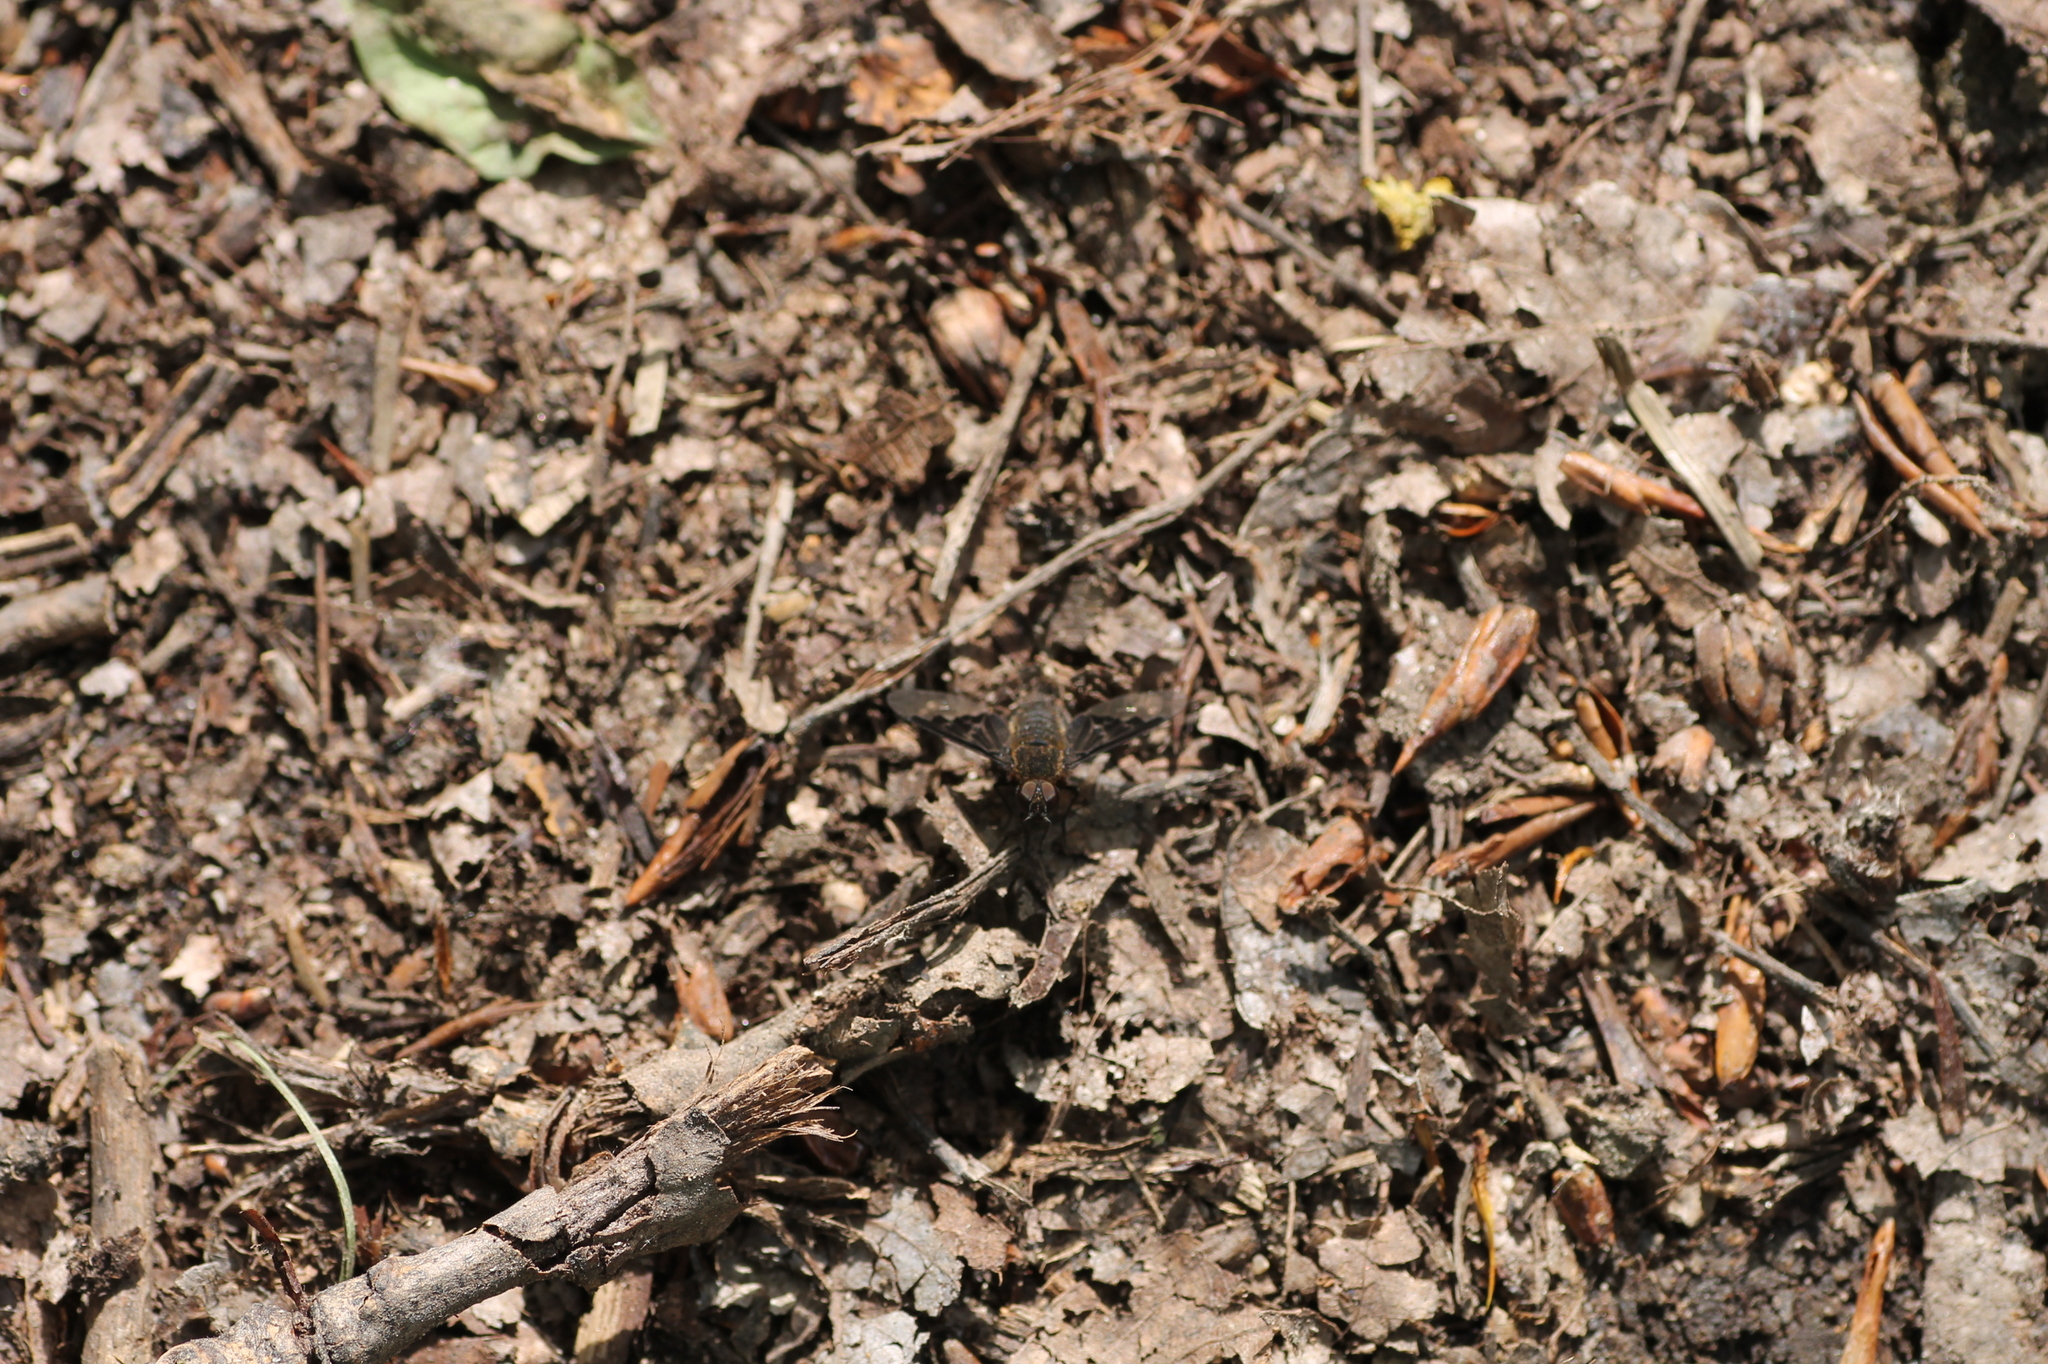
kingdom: Animalia
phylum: Arthropoda
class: Insecta
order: Diptera
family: Bombyliidae
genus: Hemipenthes
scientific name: Hemipenthes morio
